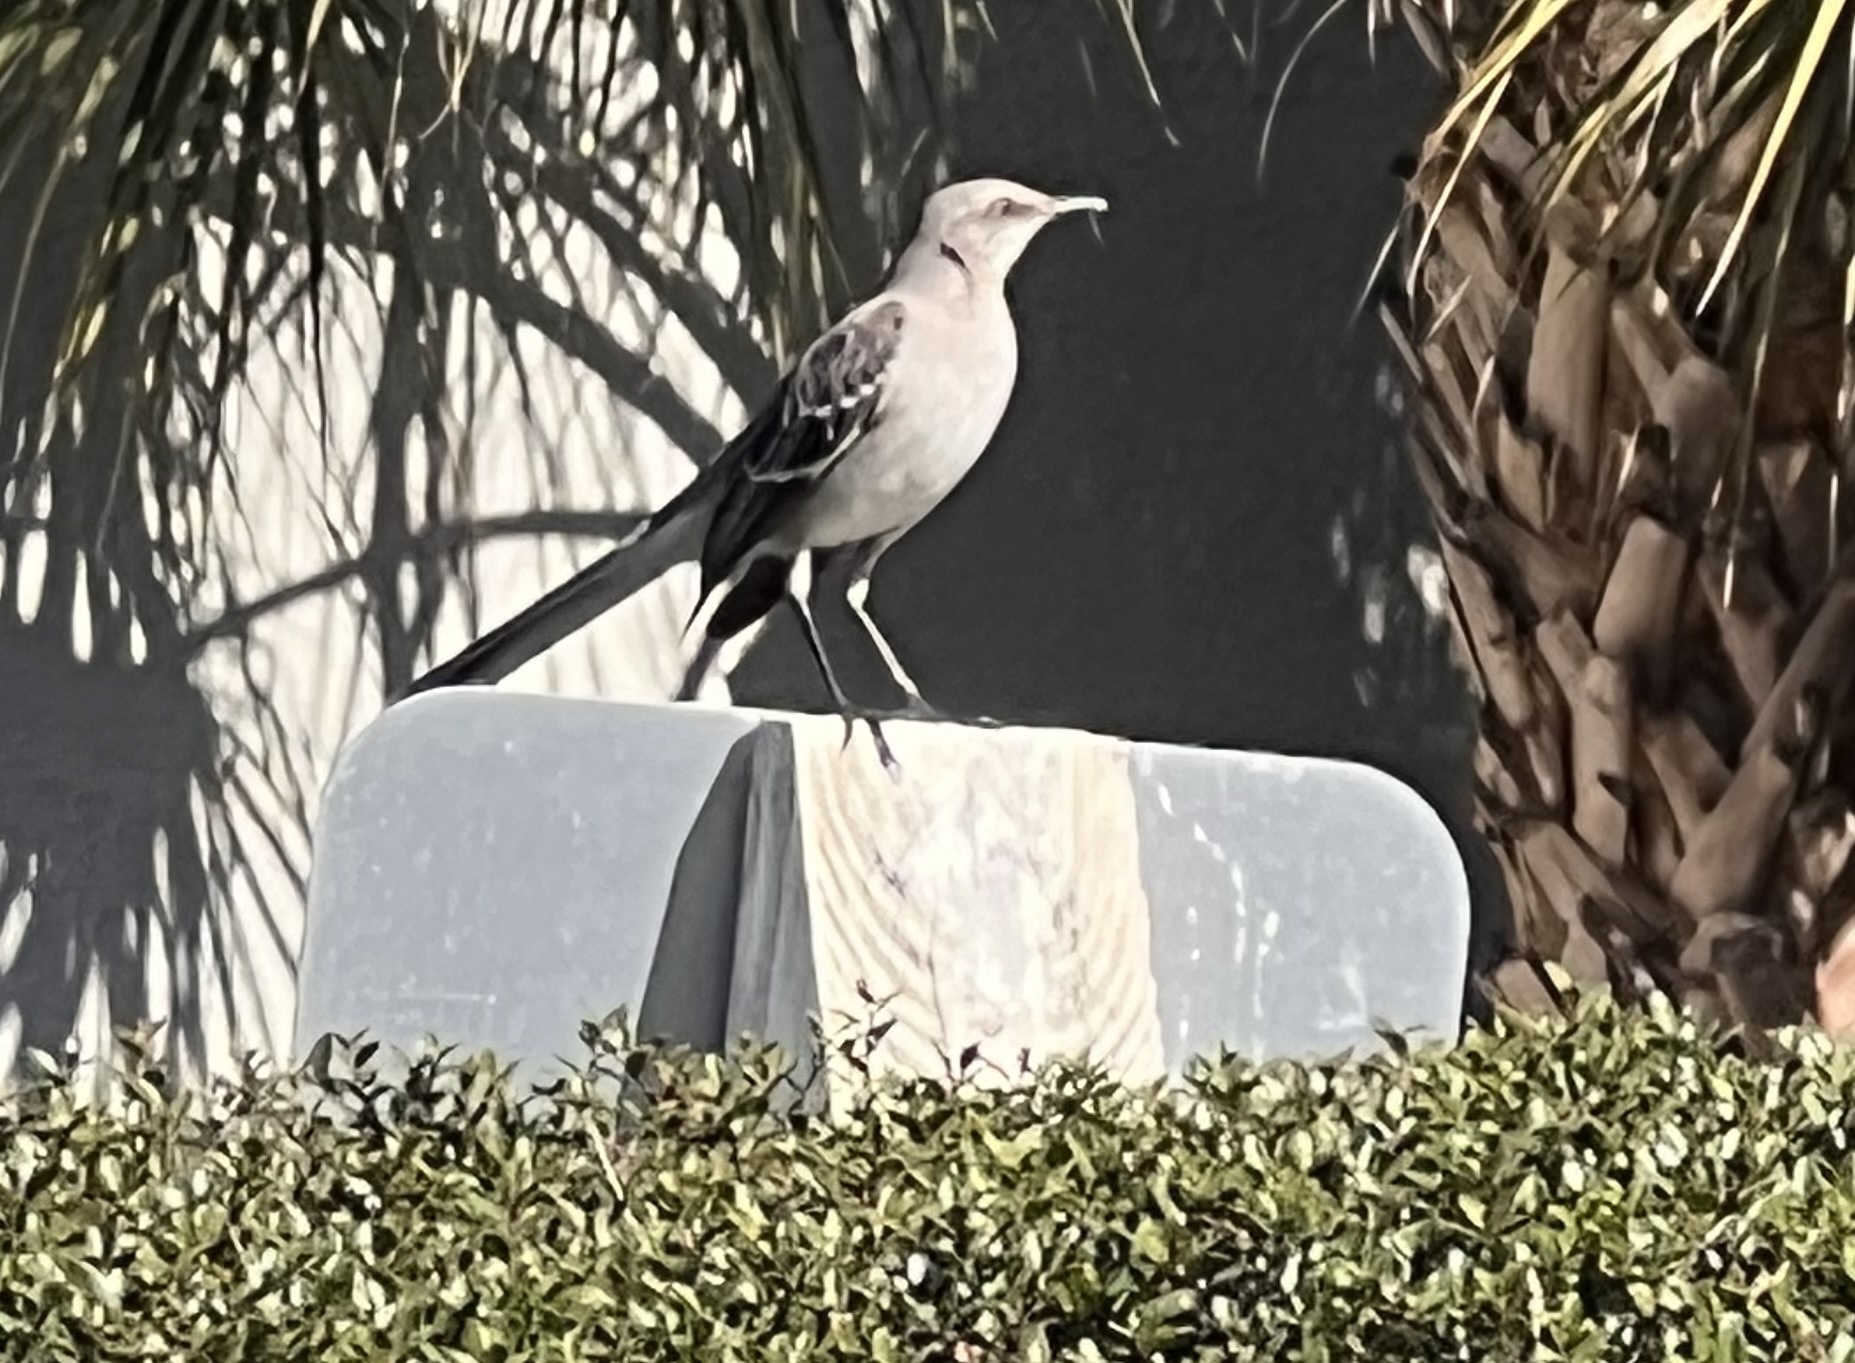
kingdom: Animalia
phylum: Chordata
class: Aves
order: Passeriformes
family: Mimidae
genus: Mimus
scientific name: Mimus polyglottos
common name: Northern mockingbird
